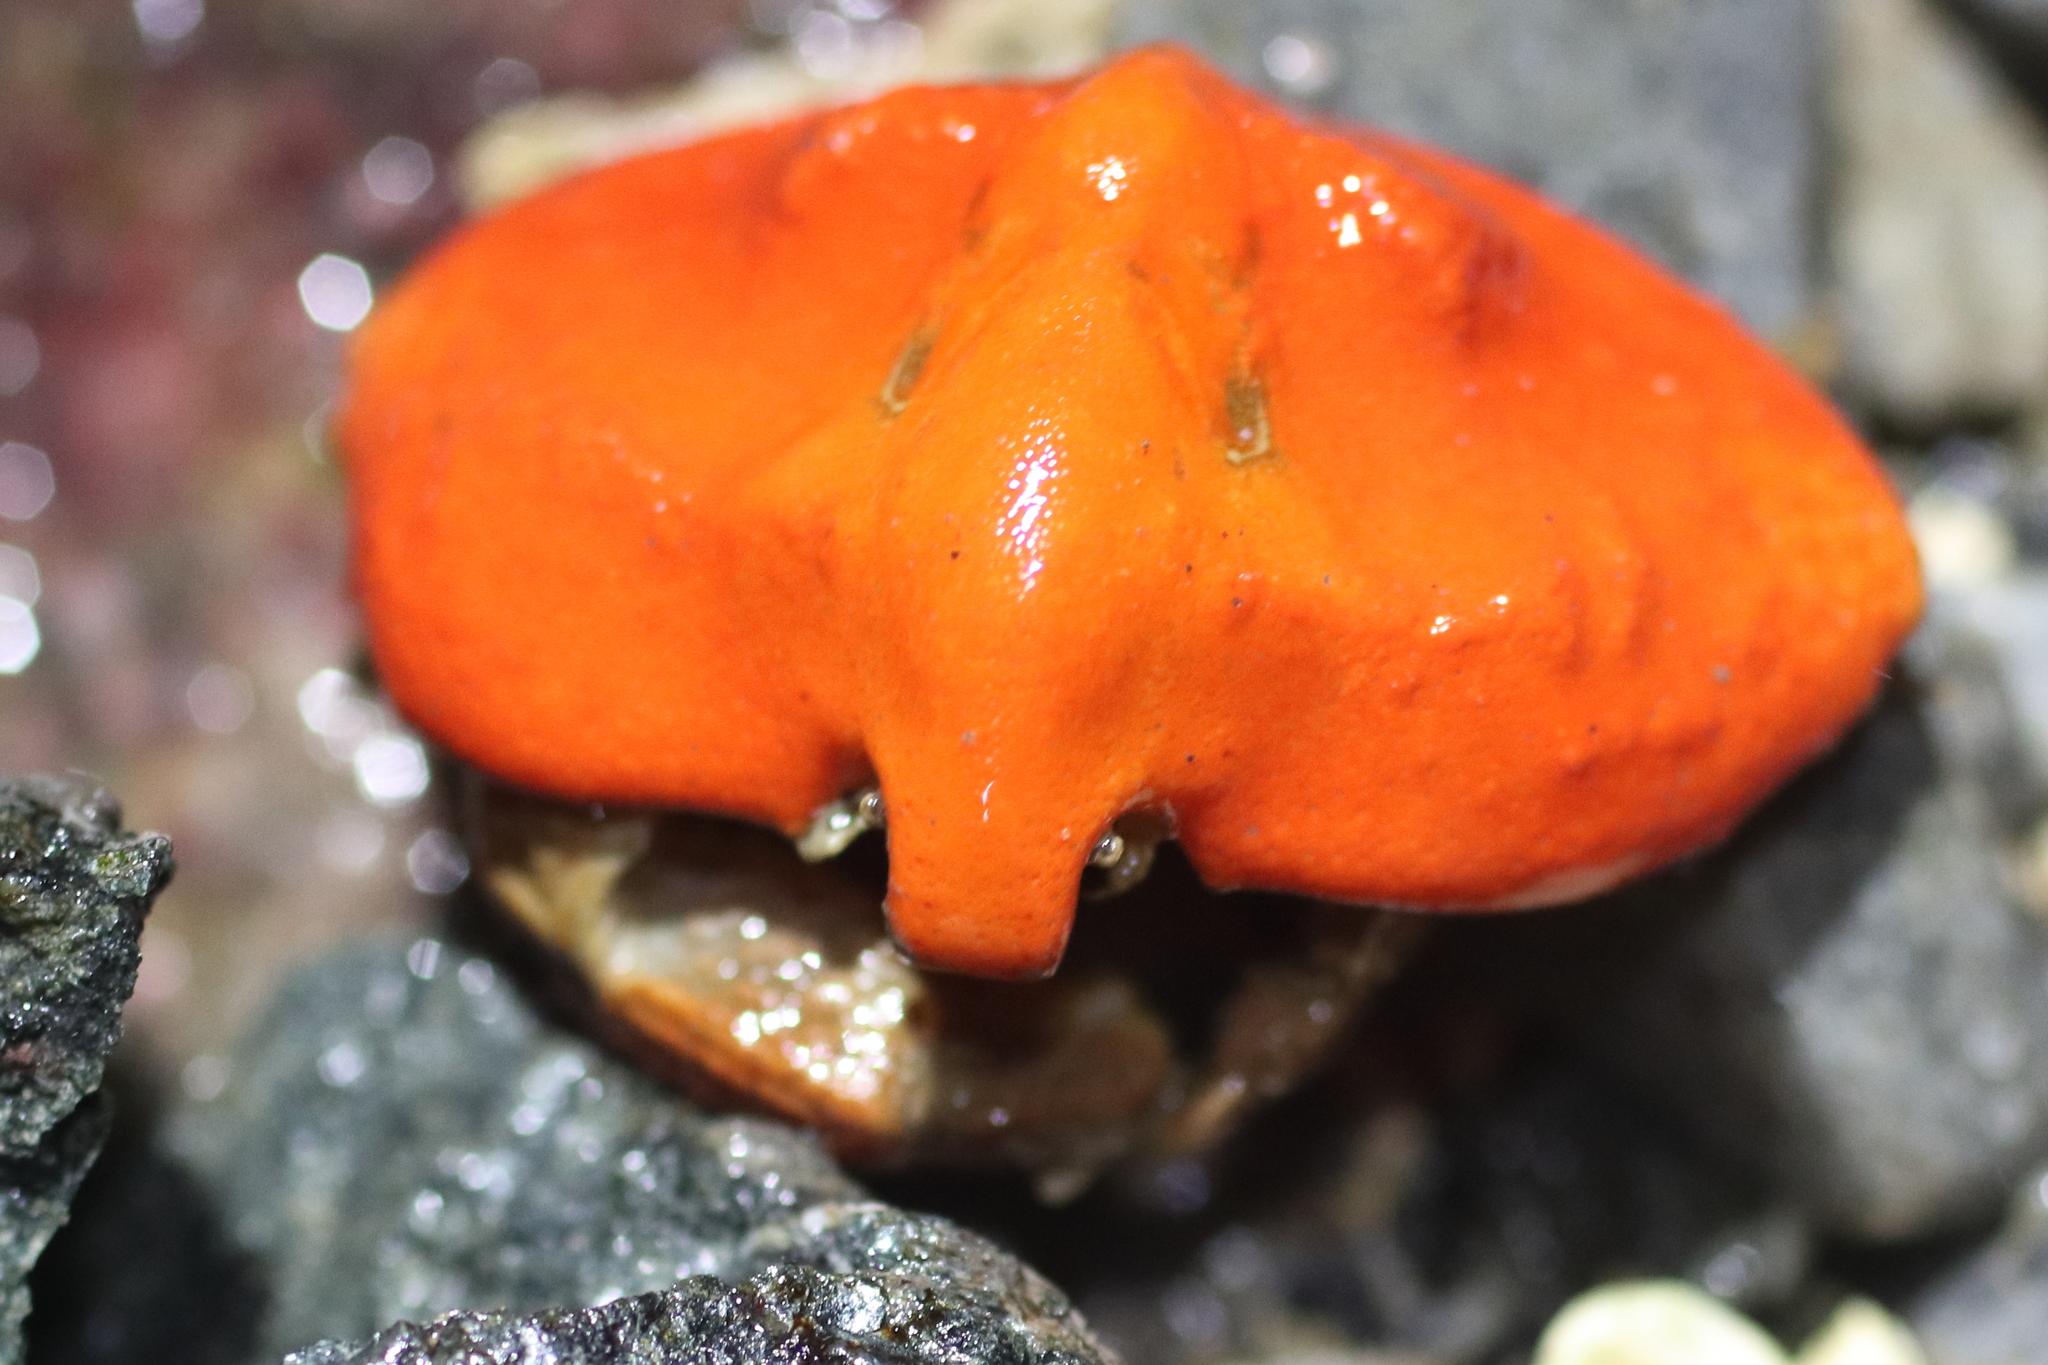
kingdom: Animalia
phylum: Arthropoda
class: Malacostraca
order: Decapoda
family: Lithodidae
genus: Cryptolithodes
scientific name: Cryptolithodes typicus
